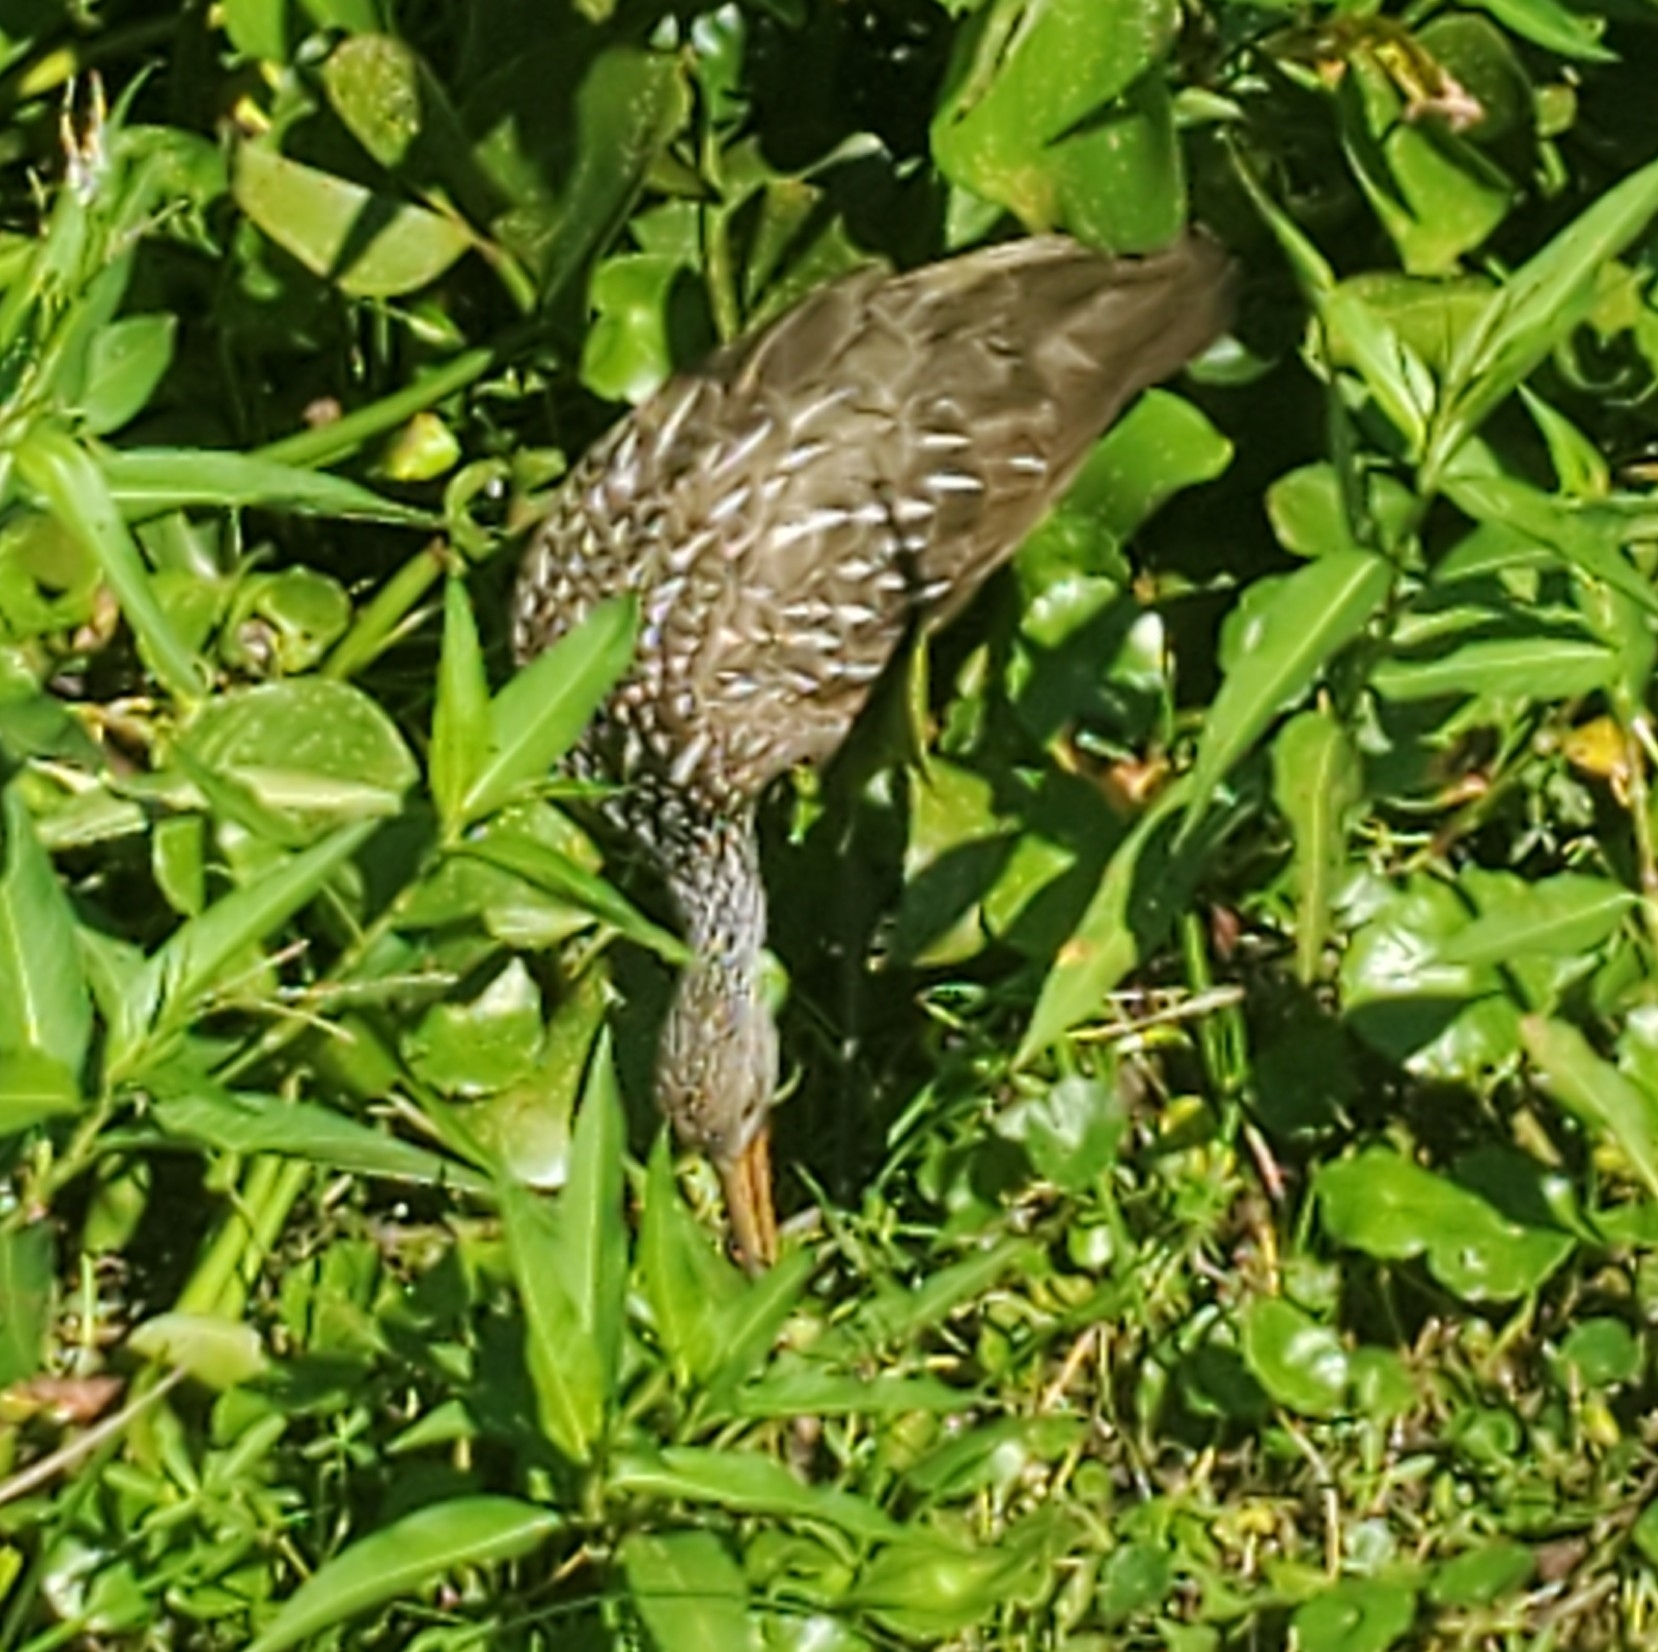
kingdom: Animalia
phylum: Chordata
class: Aves
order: Gruiformes
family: Aramidae
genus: Aramus
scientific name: Aramus guarauna
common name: Limpkin
